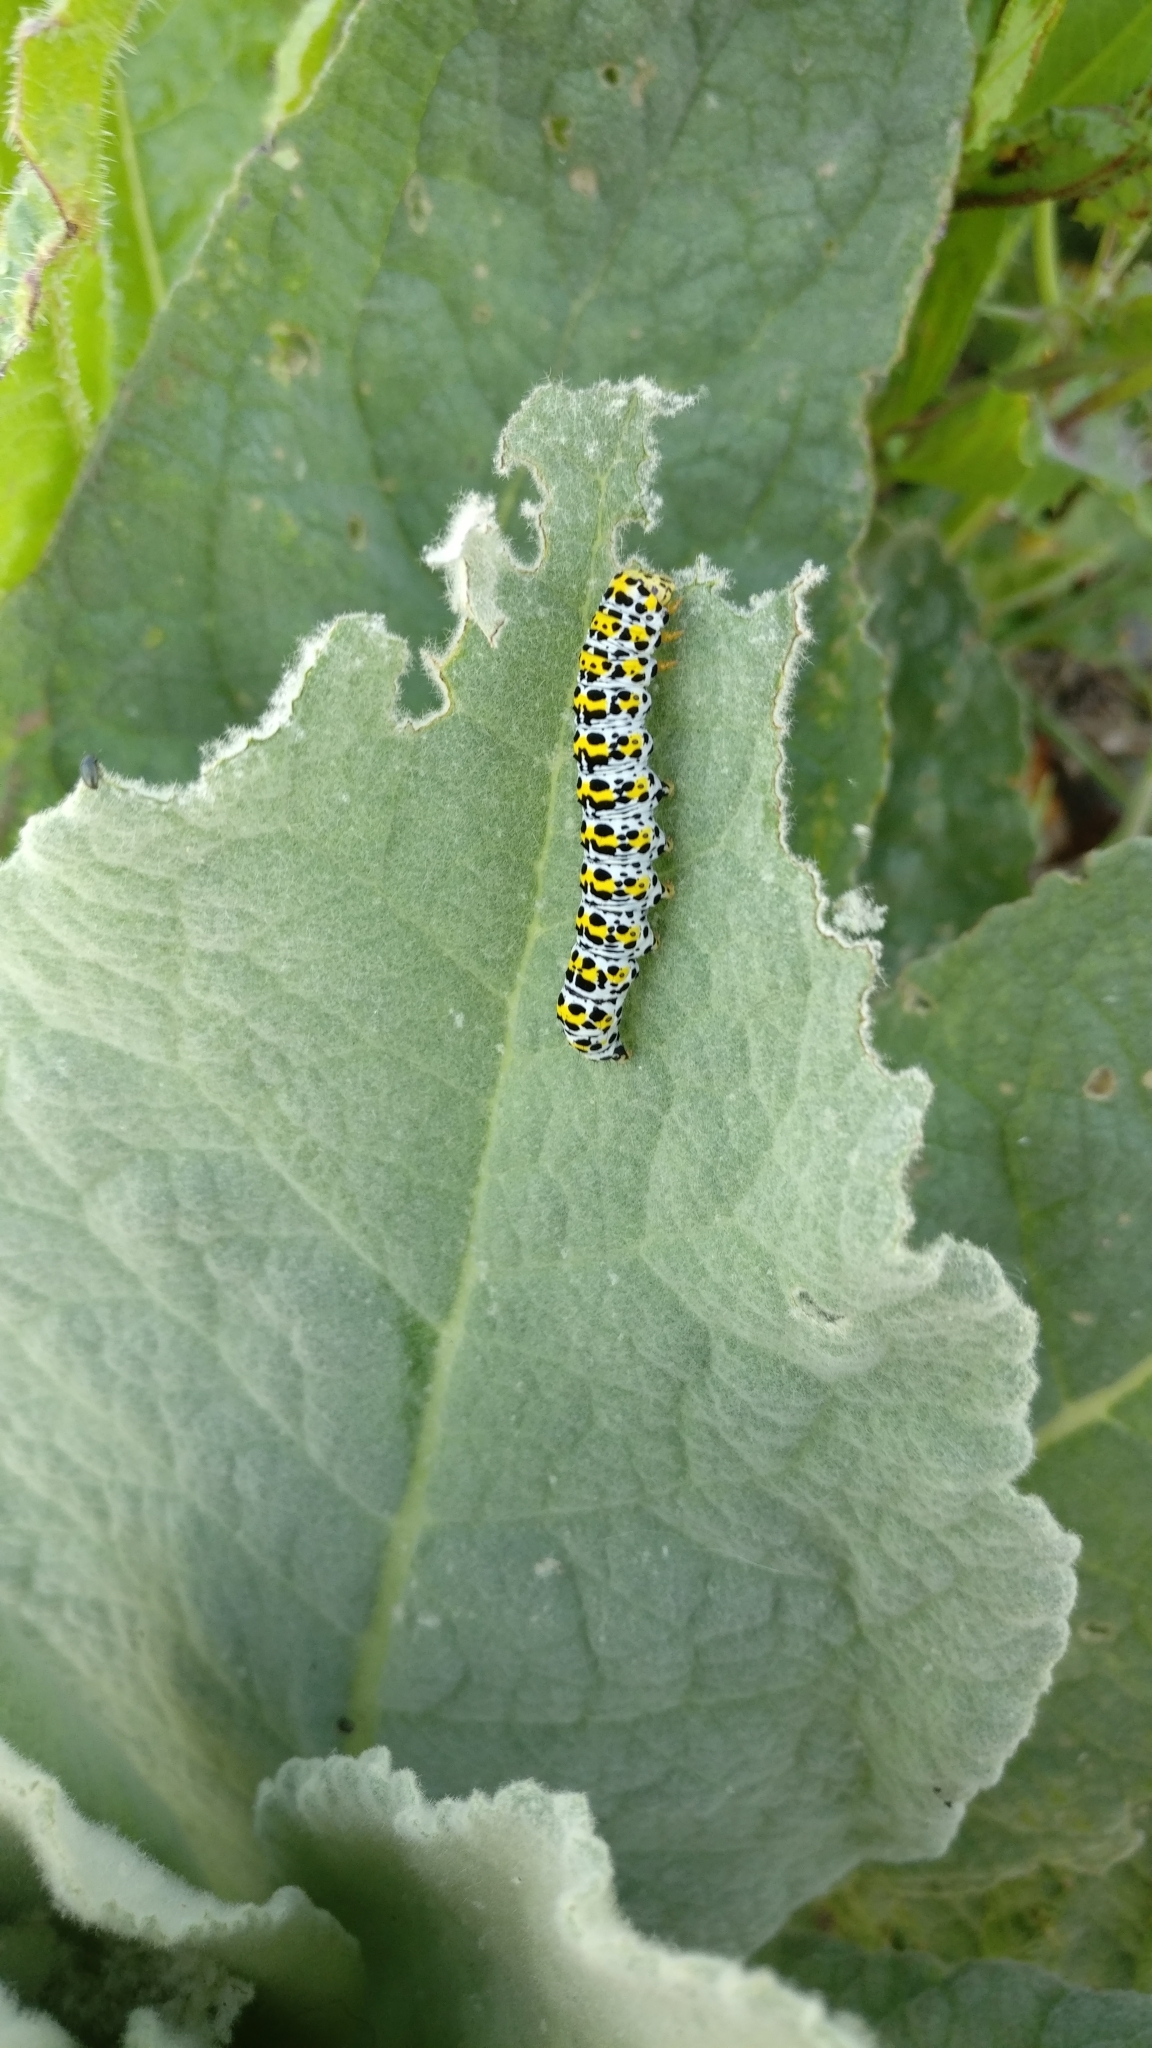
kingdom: Animalia
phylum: Arthropoda
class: Insecta
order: Lepidoptera
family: Noctuidae
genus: Cucullia
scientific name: Cucullia verbasci
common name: Mullein
